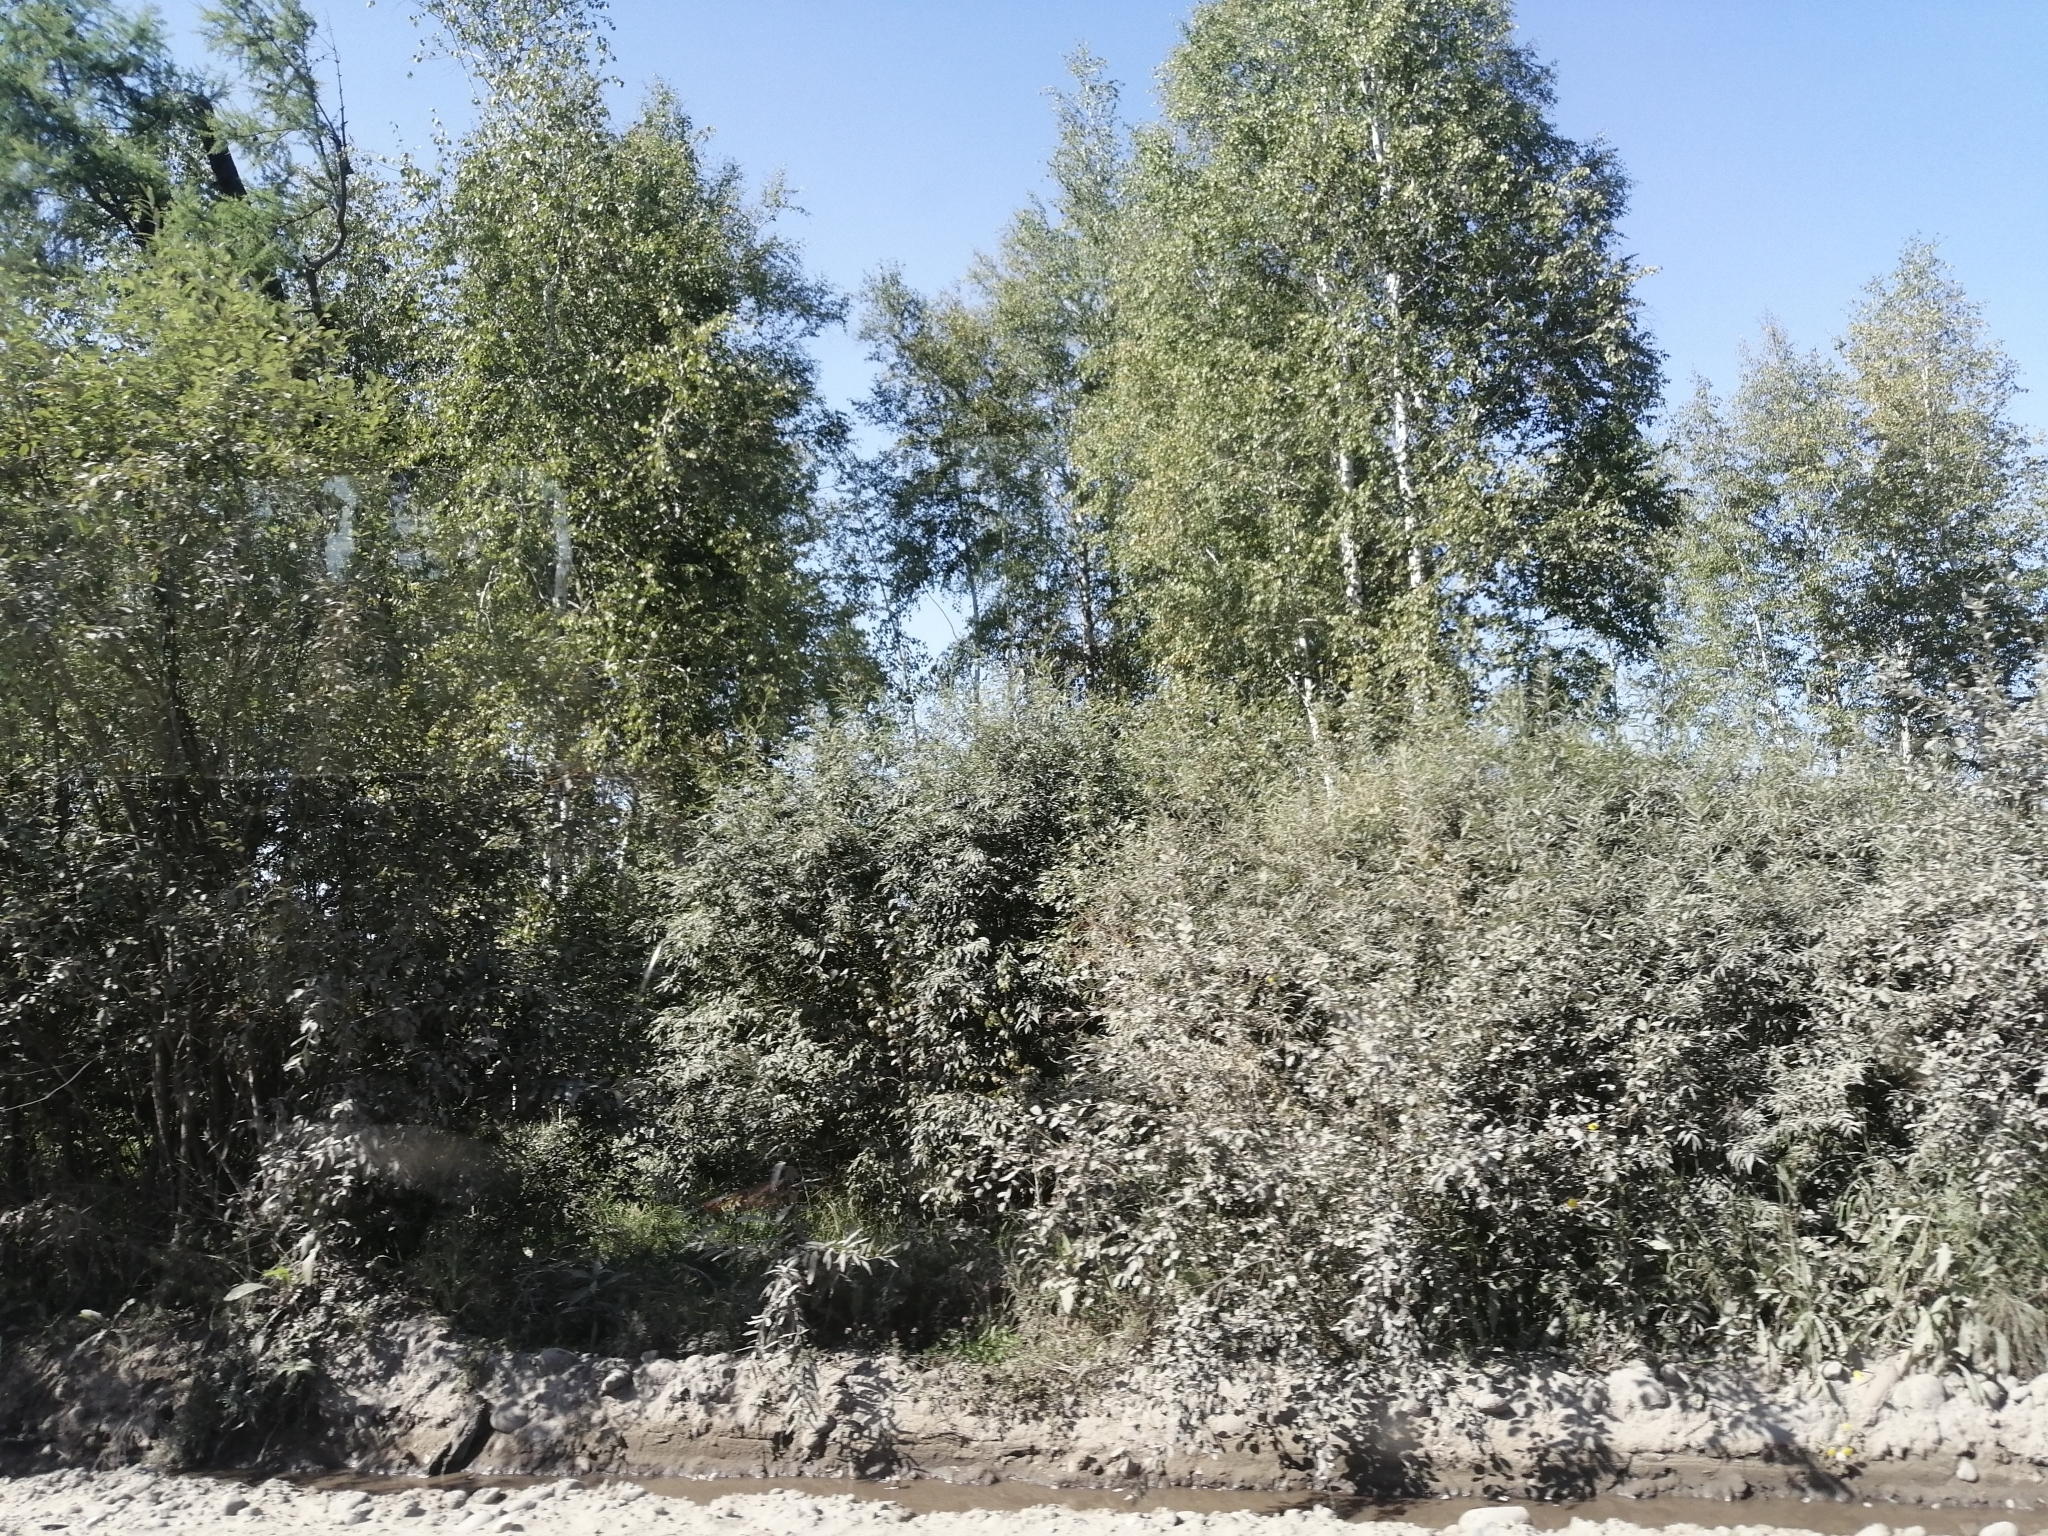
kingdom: Plantae
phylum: Tracheophyta
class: Pinopsida
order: Pinales
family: Pinaceae
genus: Larix
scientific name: Larix sibirica
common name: Siberian larch
